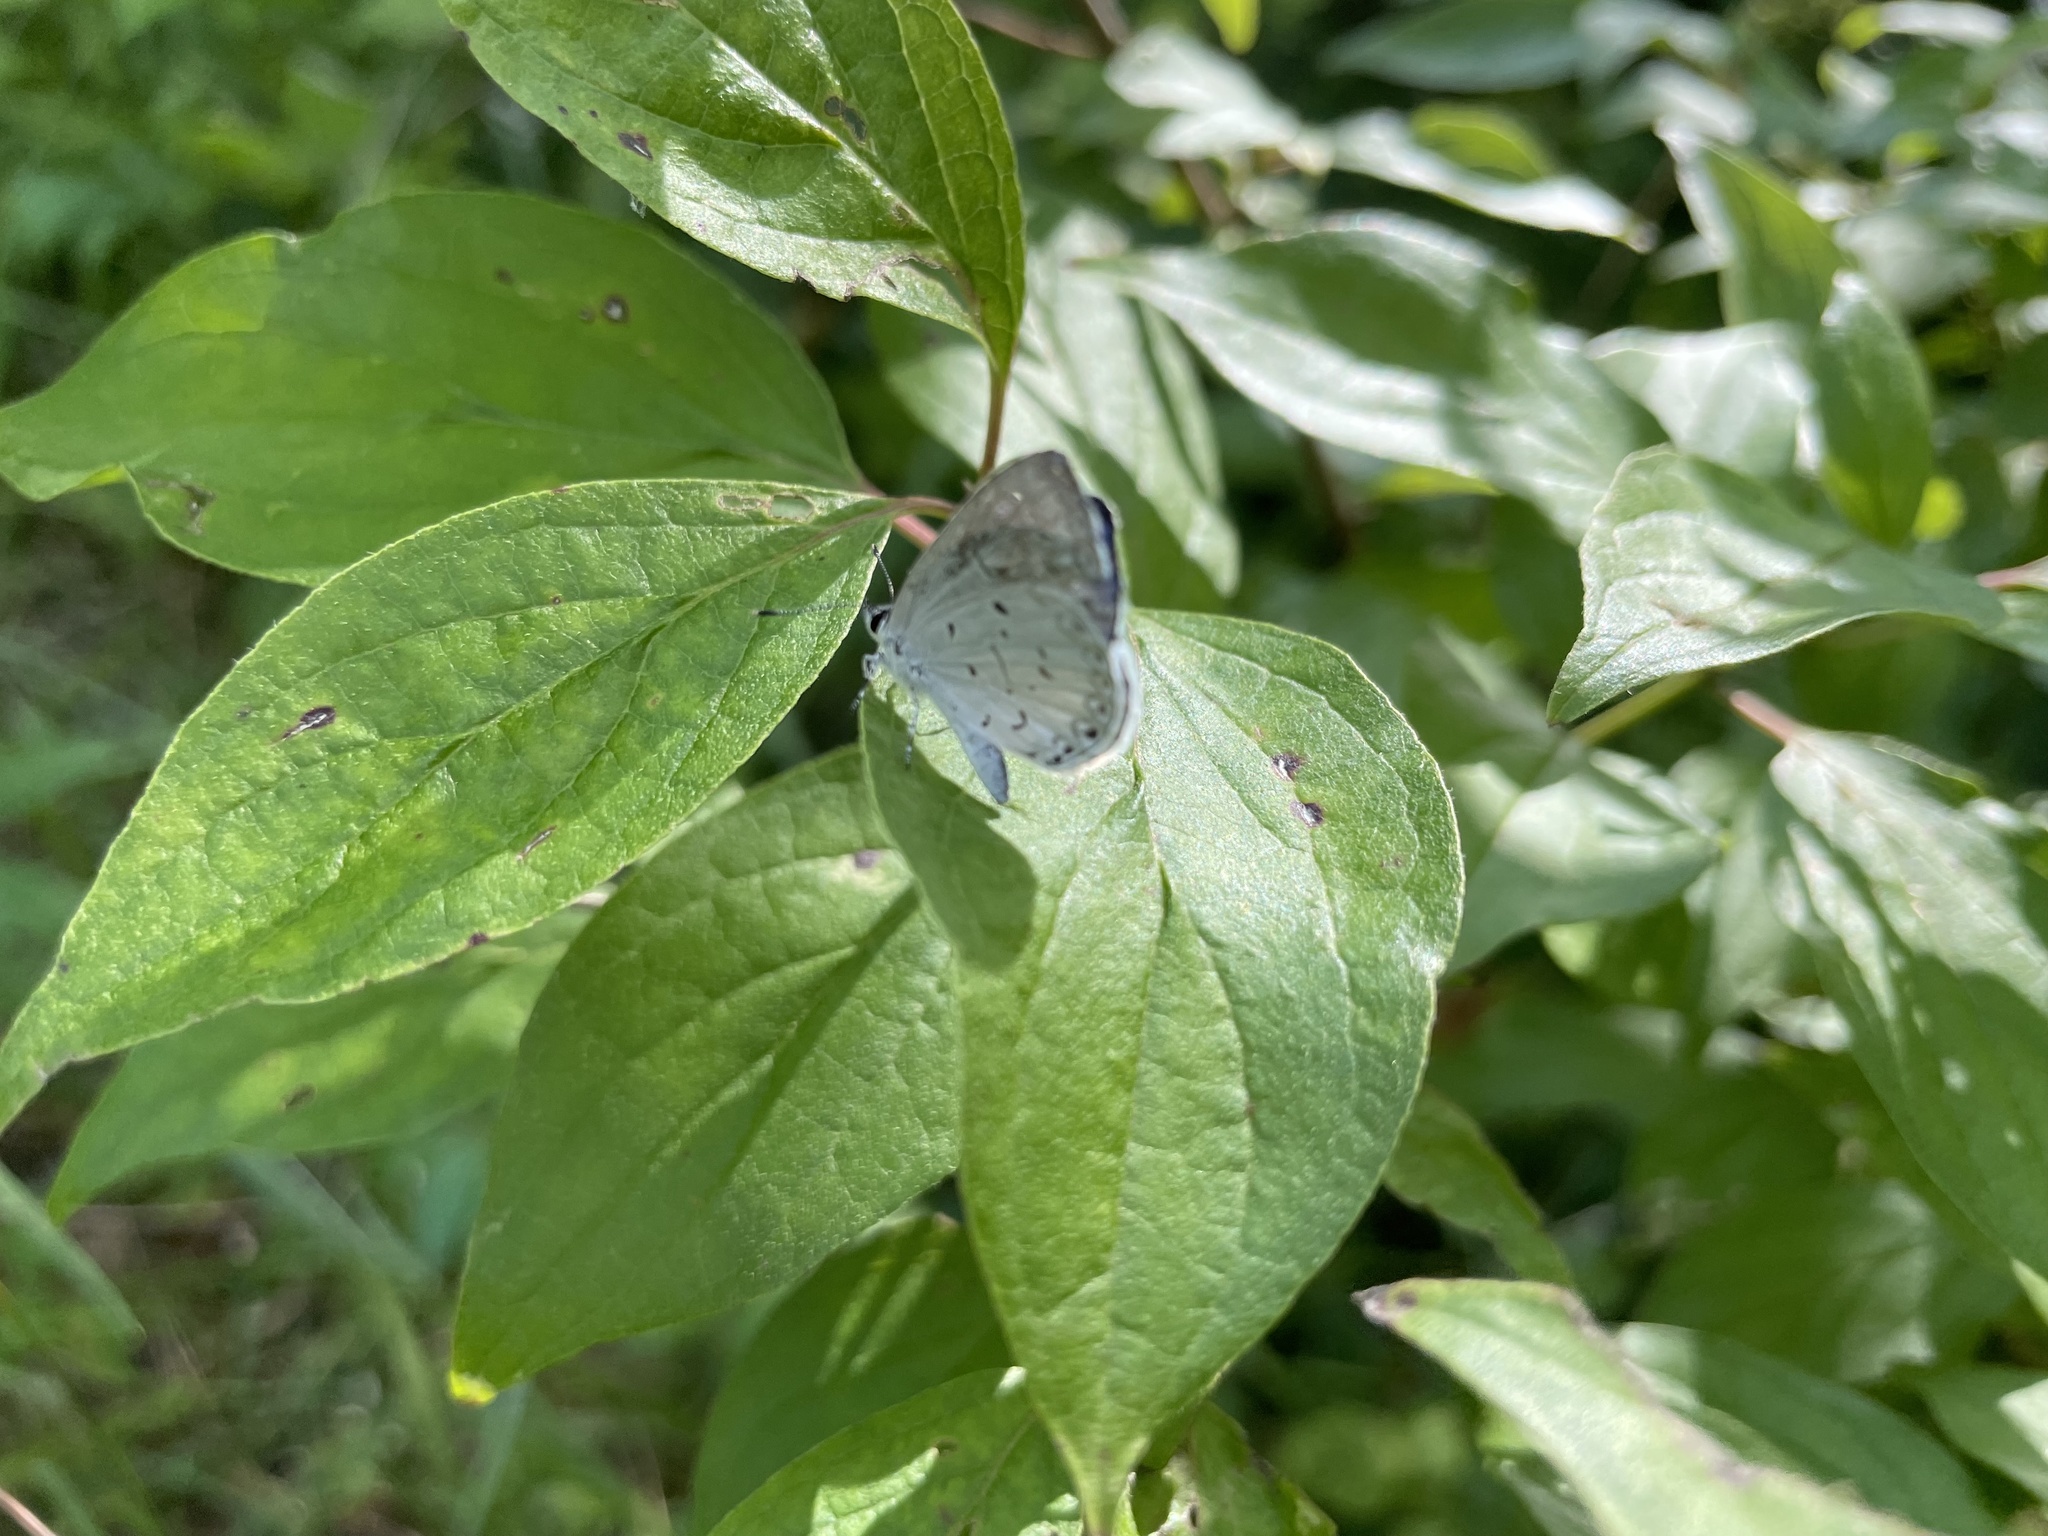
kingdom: Animalia
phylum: Arthropoda
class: Insecta
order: Lepidoptera
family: Lycaenidae
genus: Cyaniris
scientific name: Cyaniris neglecta
